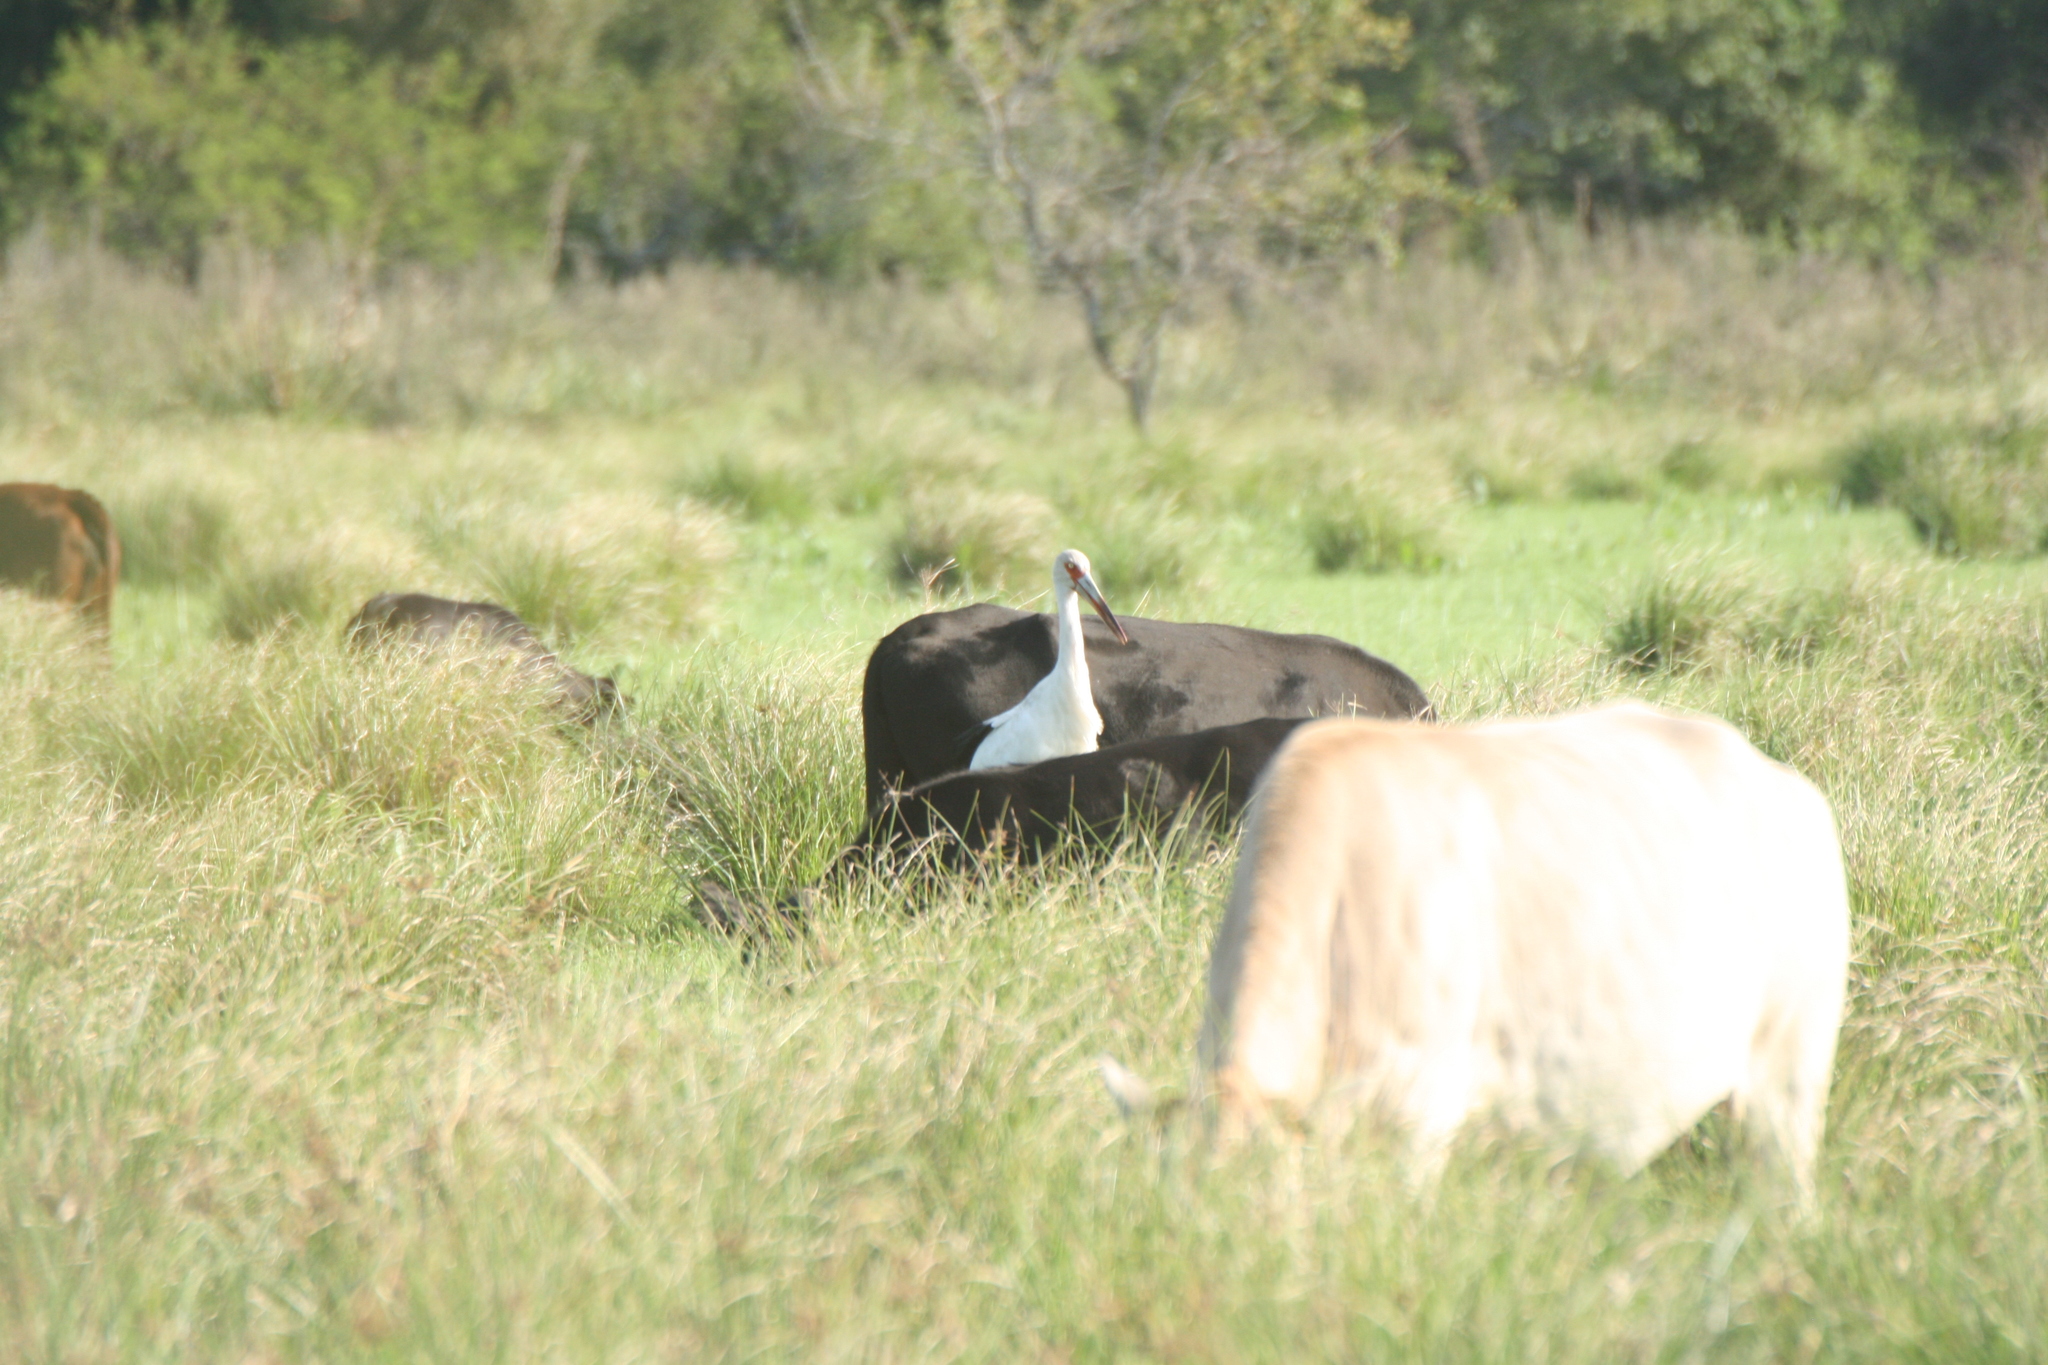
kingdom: Animalia
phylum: Chordata
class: Aves
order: Ciconiiformes
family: Ciconiidae
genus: Ciconia
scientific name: Ciconia maguari
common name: Maguari stork
